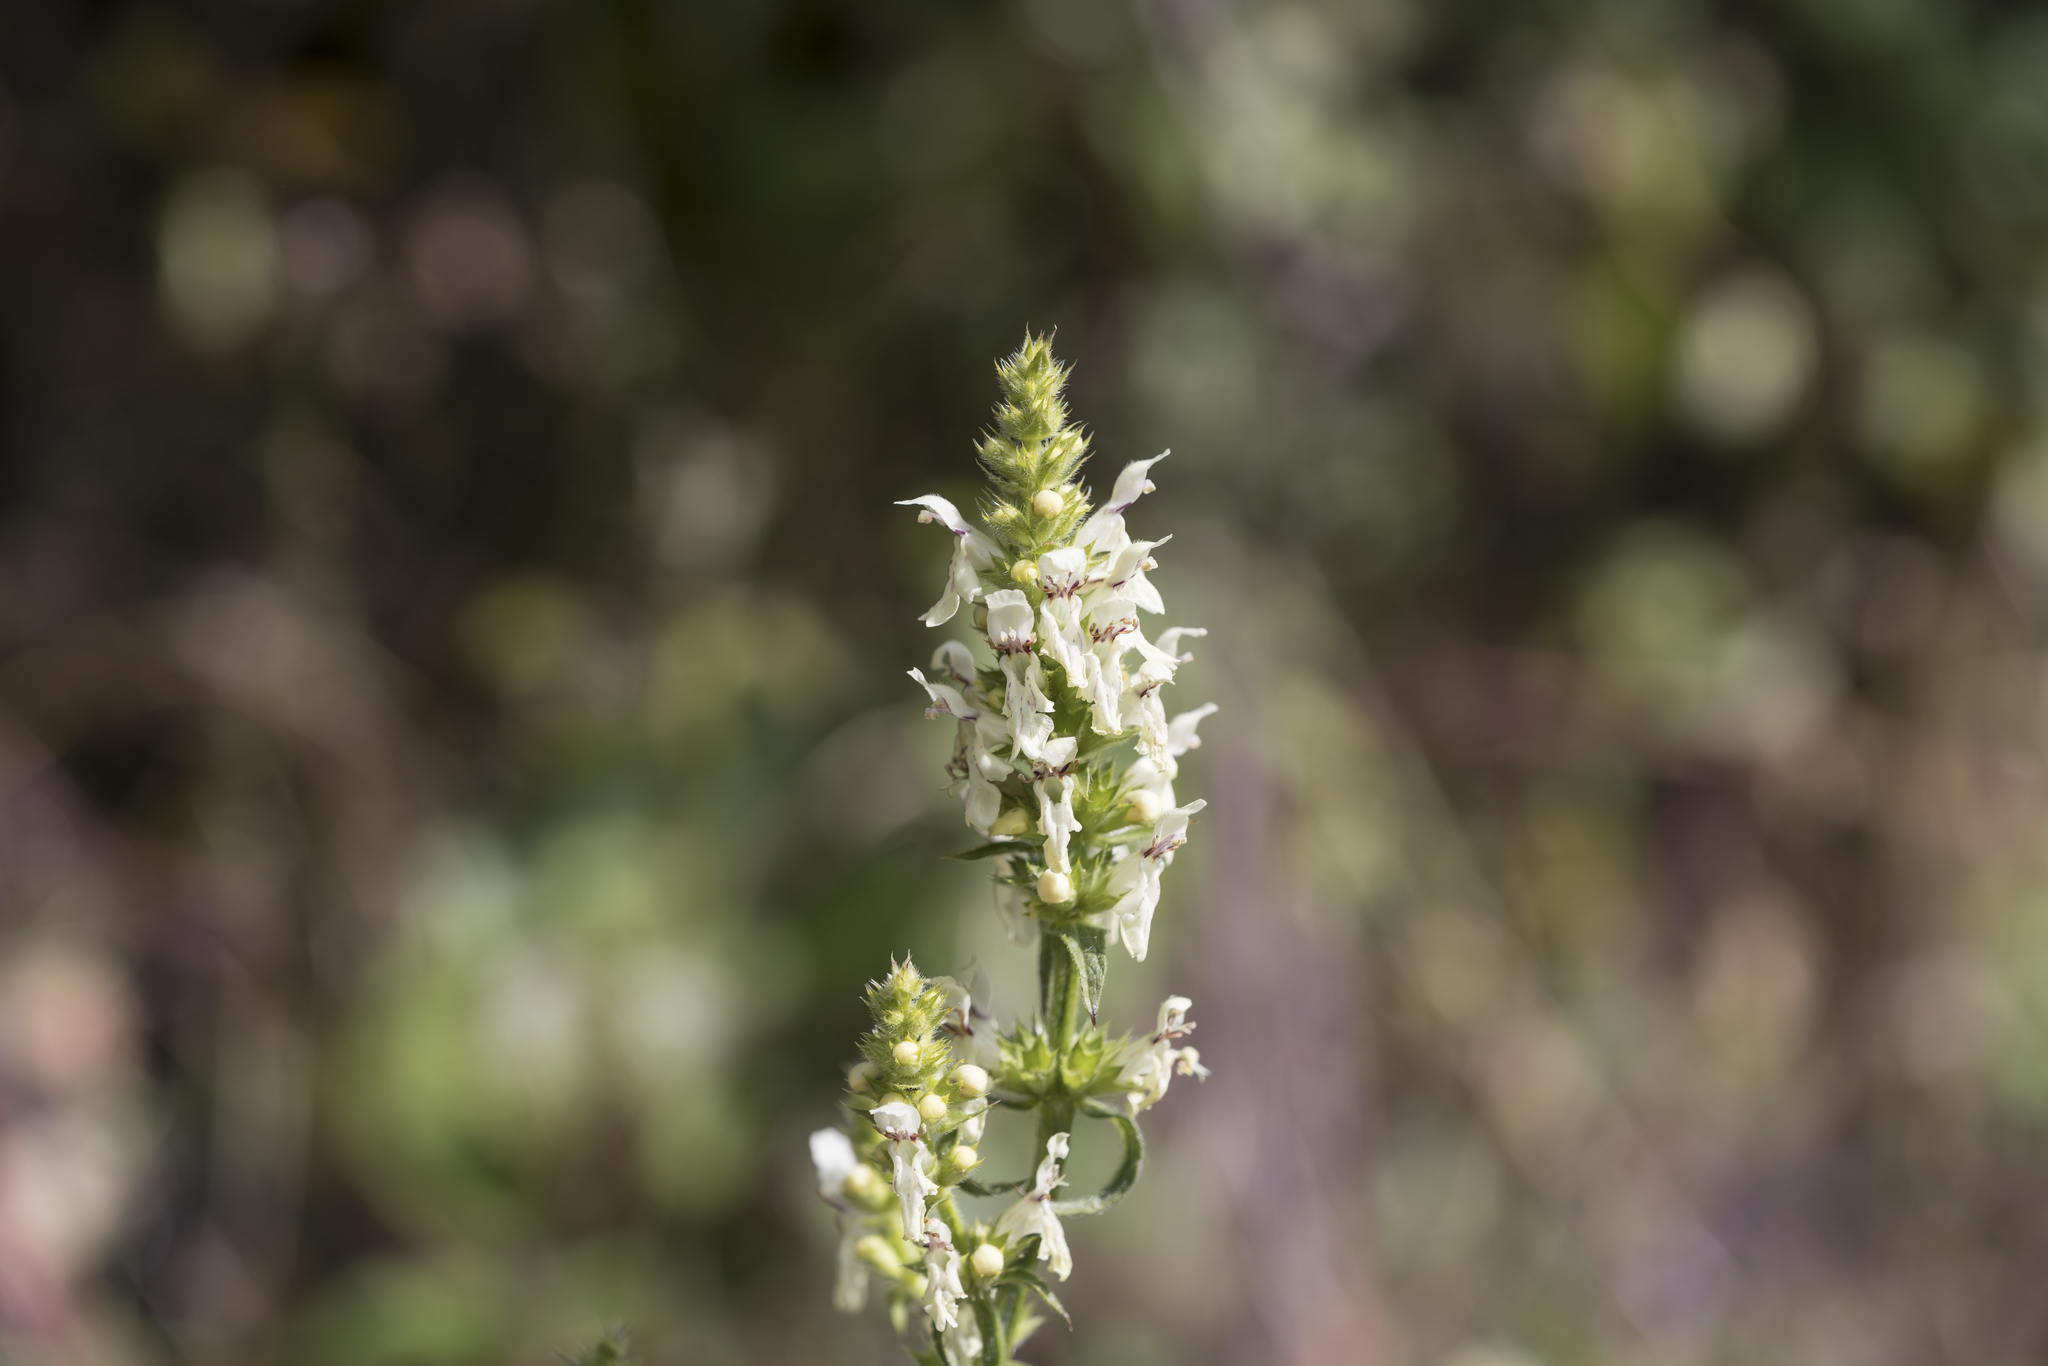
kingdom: Plantae
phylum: Tracheophyta
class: Magnoliopsida
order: Lamiales
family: Lamiaceae
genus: Stachys
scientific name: Stachys recta
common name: Perennial yellow-woundwort
